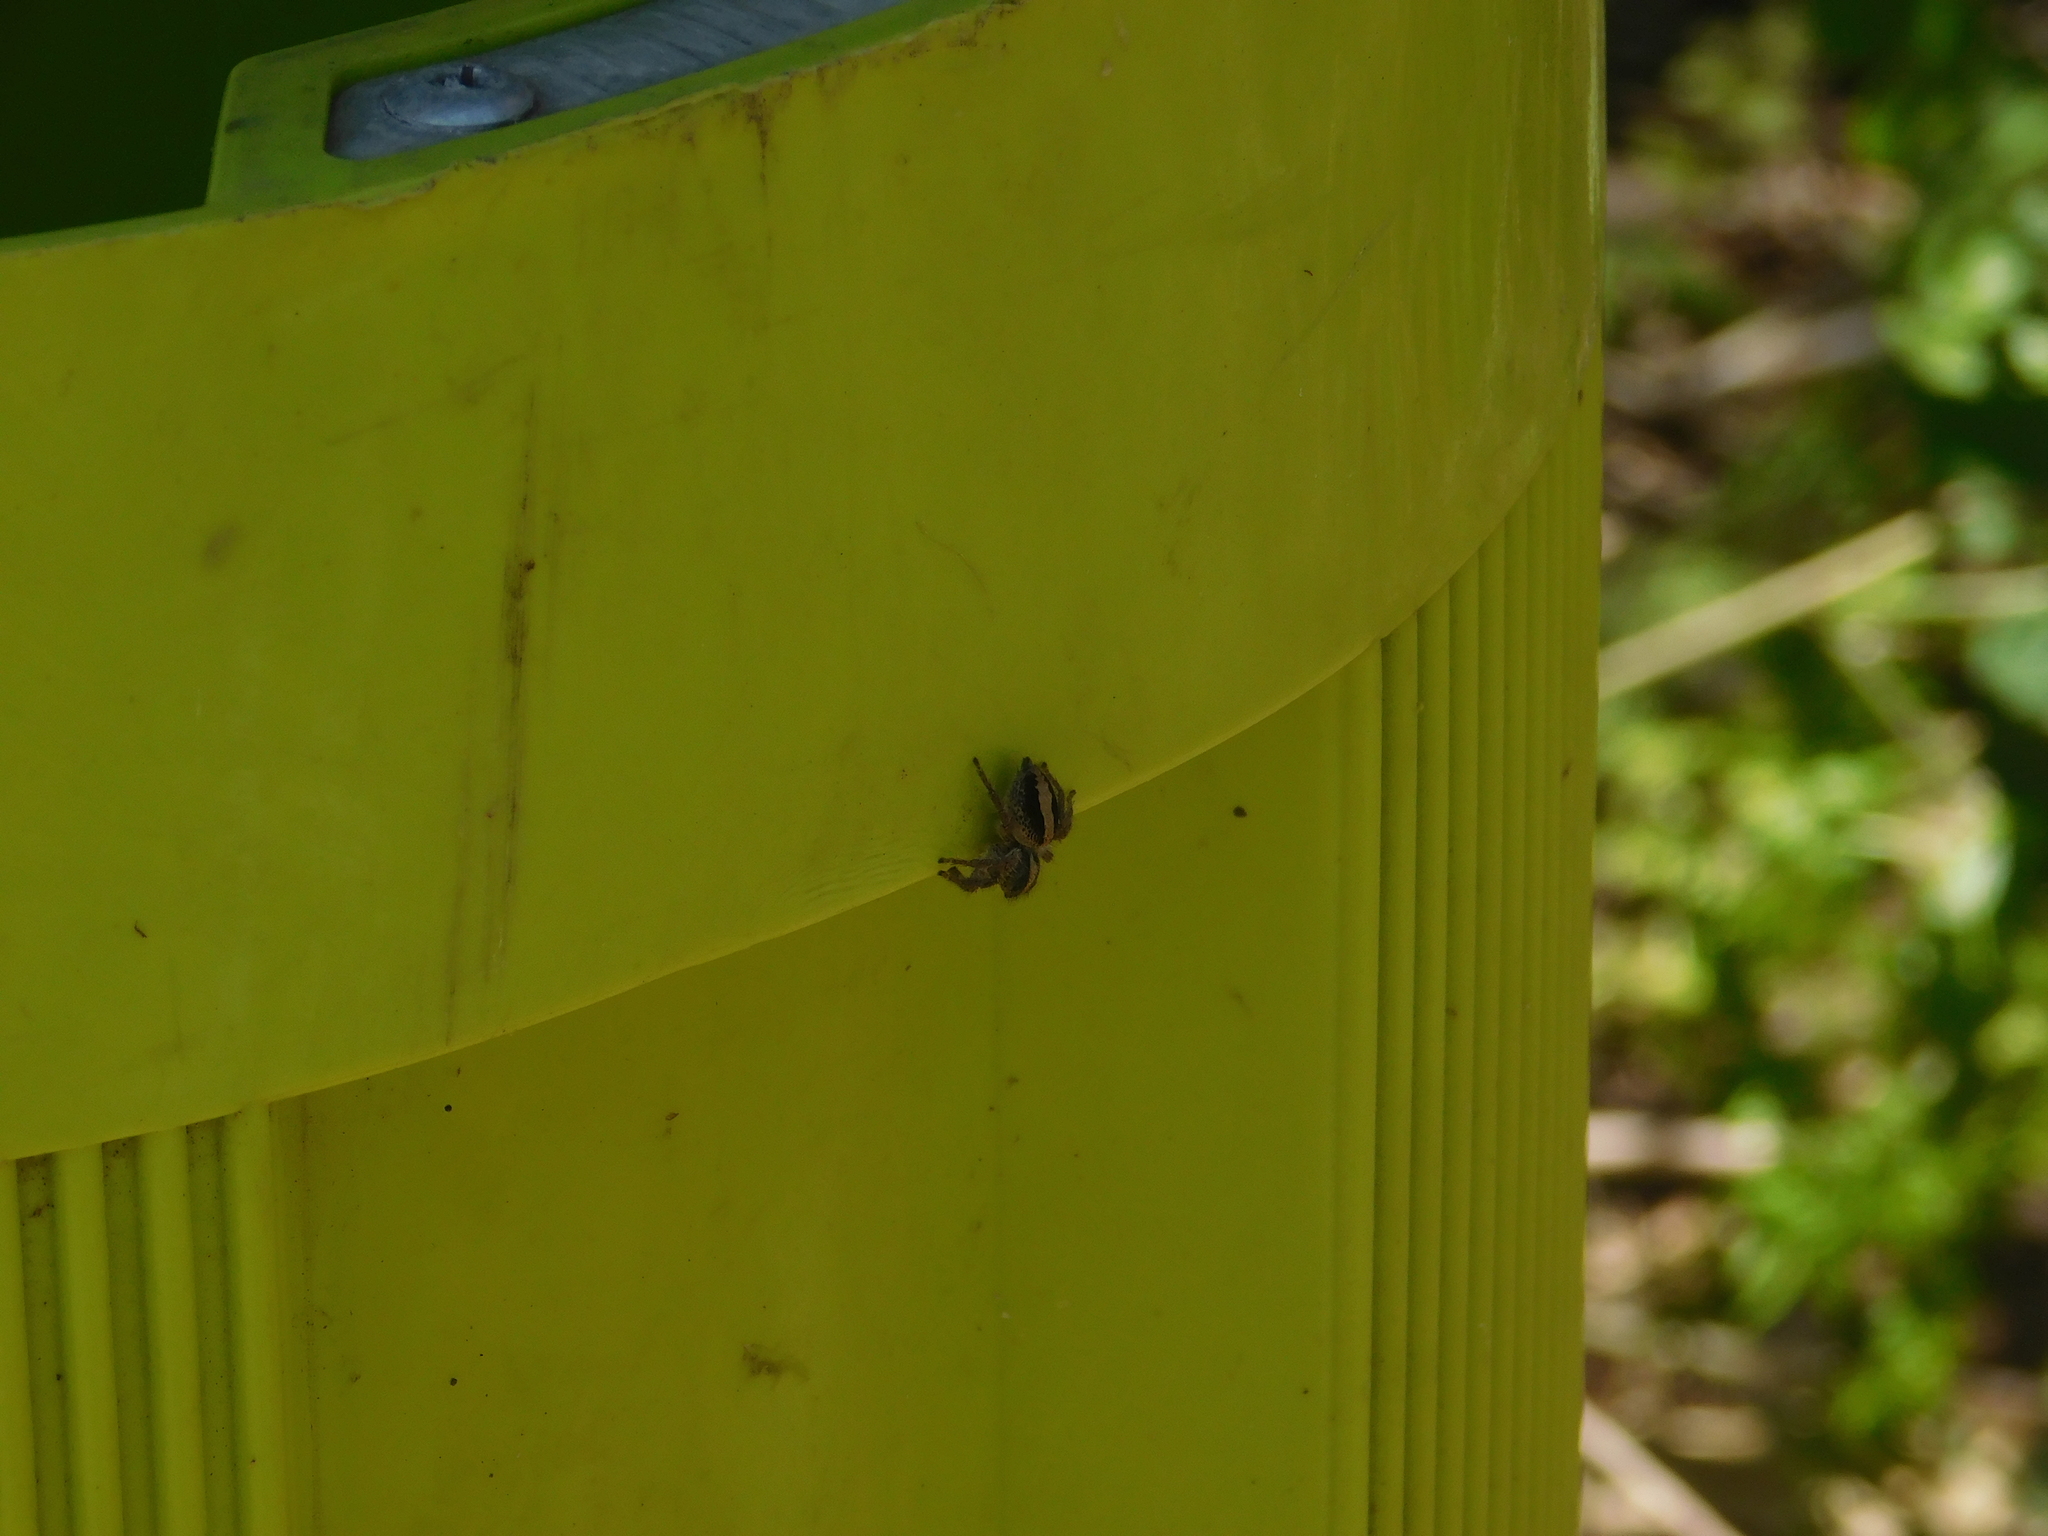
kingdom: Animalia
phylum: Arthropoda
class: Arachnida
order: Araneae
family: Salticidae
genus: Megafreya
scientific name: Megafreya sutrix
